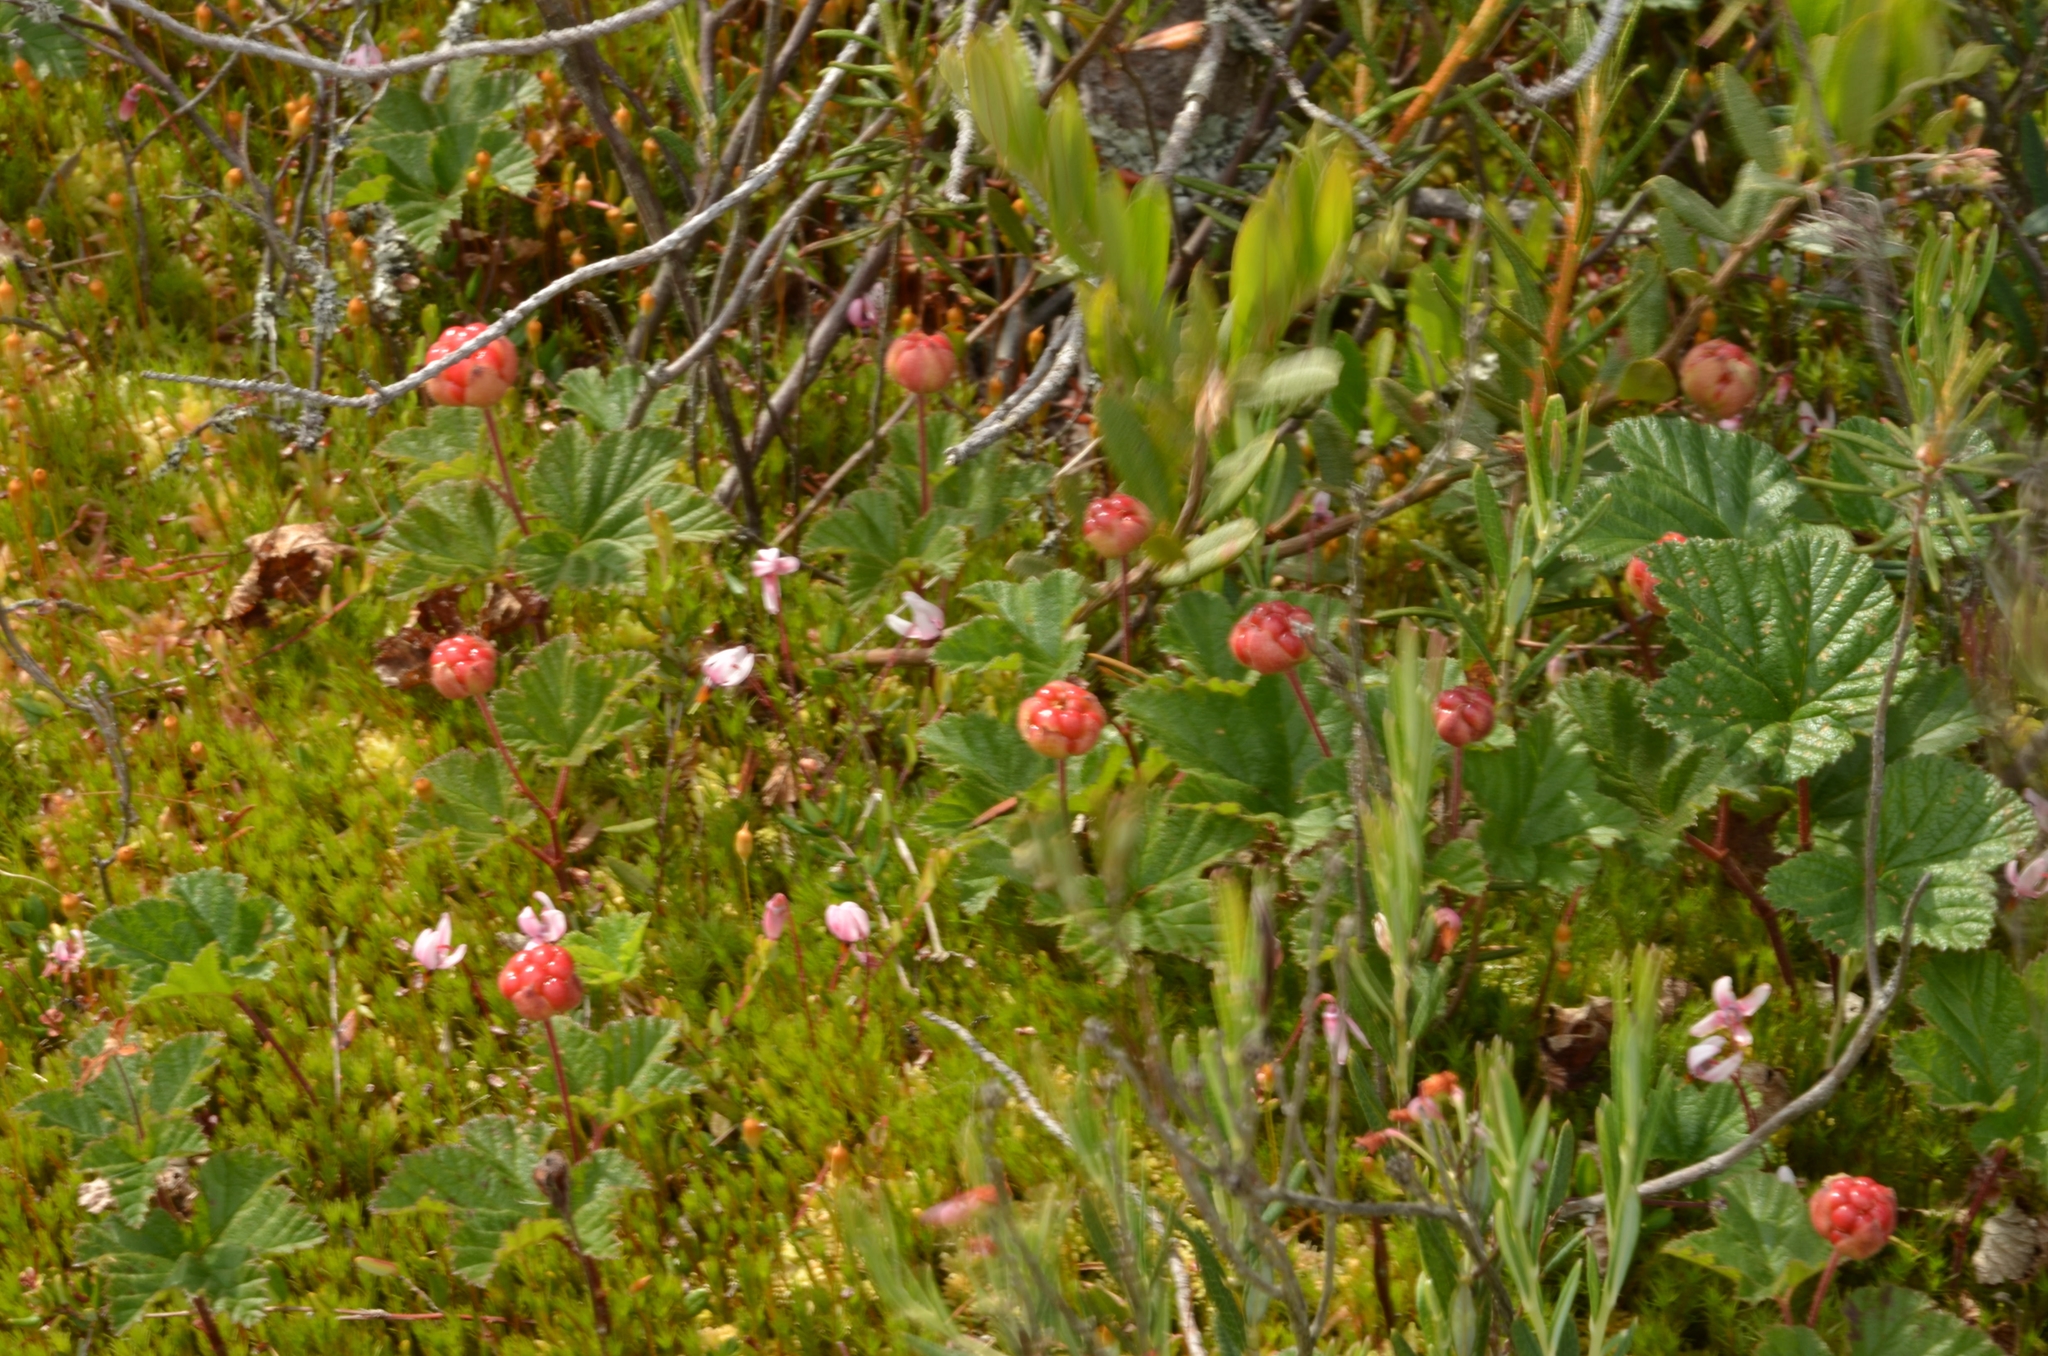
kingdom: Plantae
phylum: Tracheophyta
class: Magnoliopsida
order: Rosales
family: Rosaceae
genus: Rubus
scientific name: Rubus chamaemorus
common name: Cloudberry
